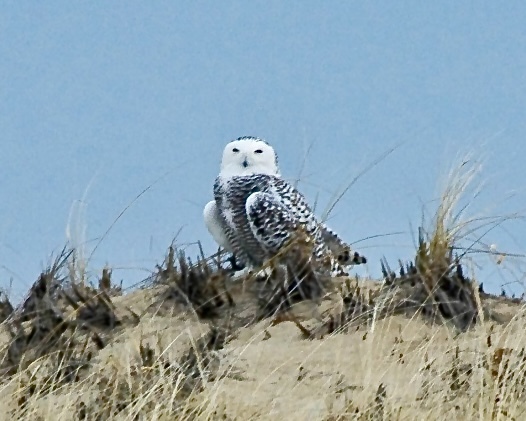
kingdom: Animalia
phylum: Chordata
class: Aves
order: Strigiformes
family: Strigidae
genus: Bubo
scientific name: Bubo scandiacus
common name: Snowy owl
